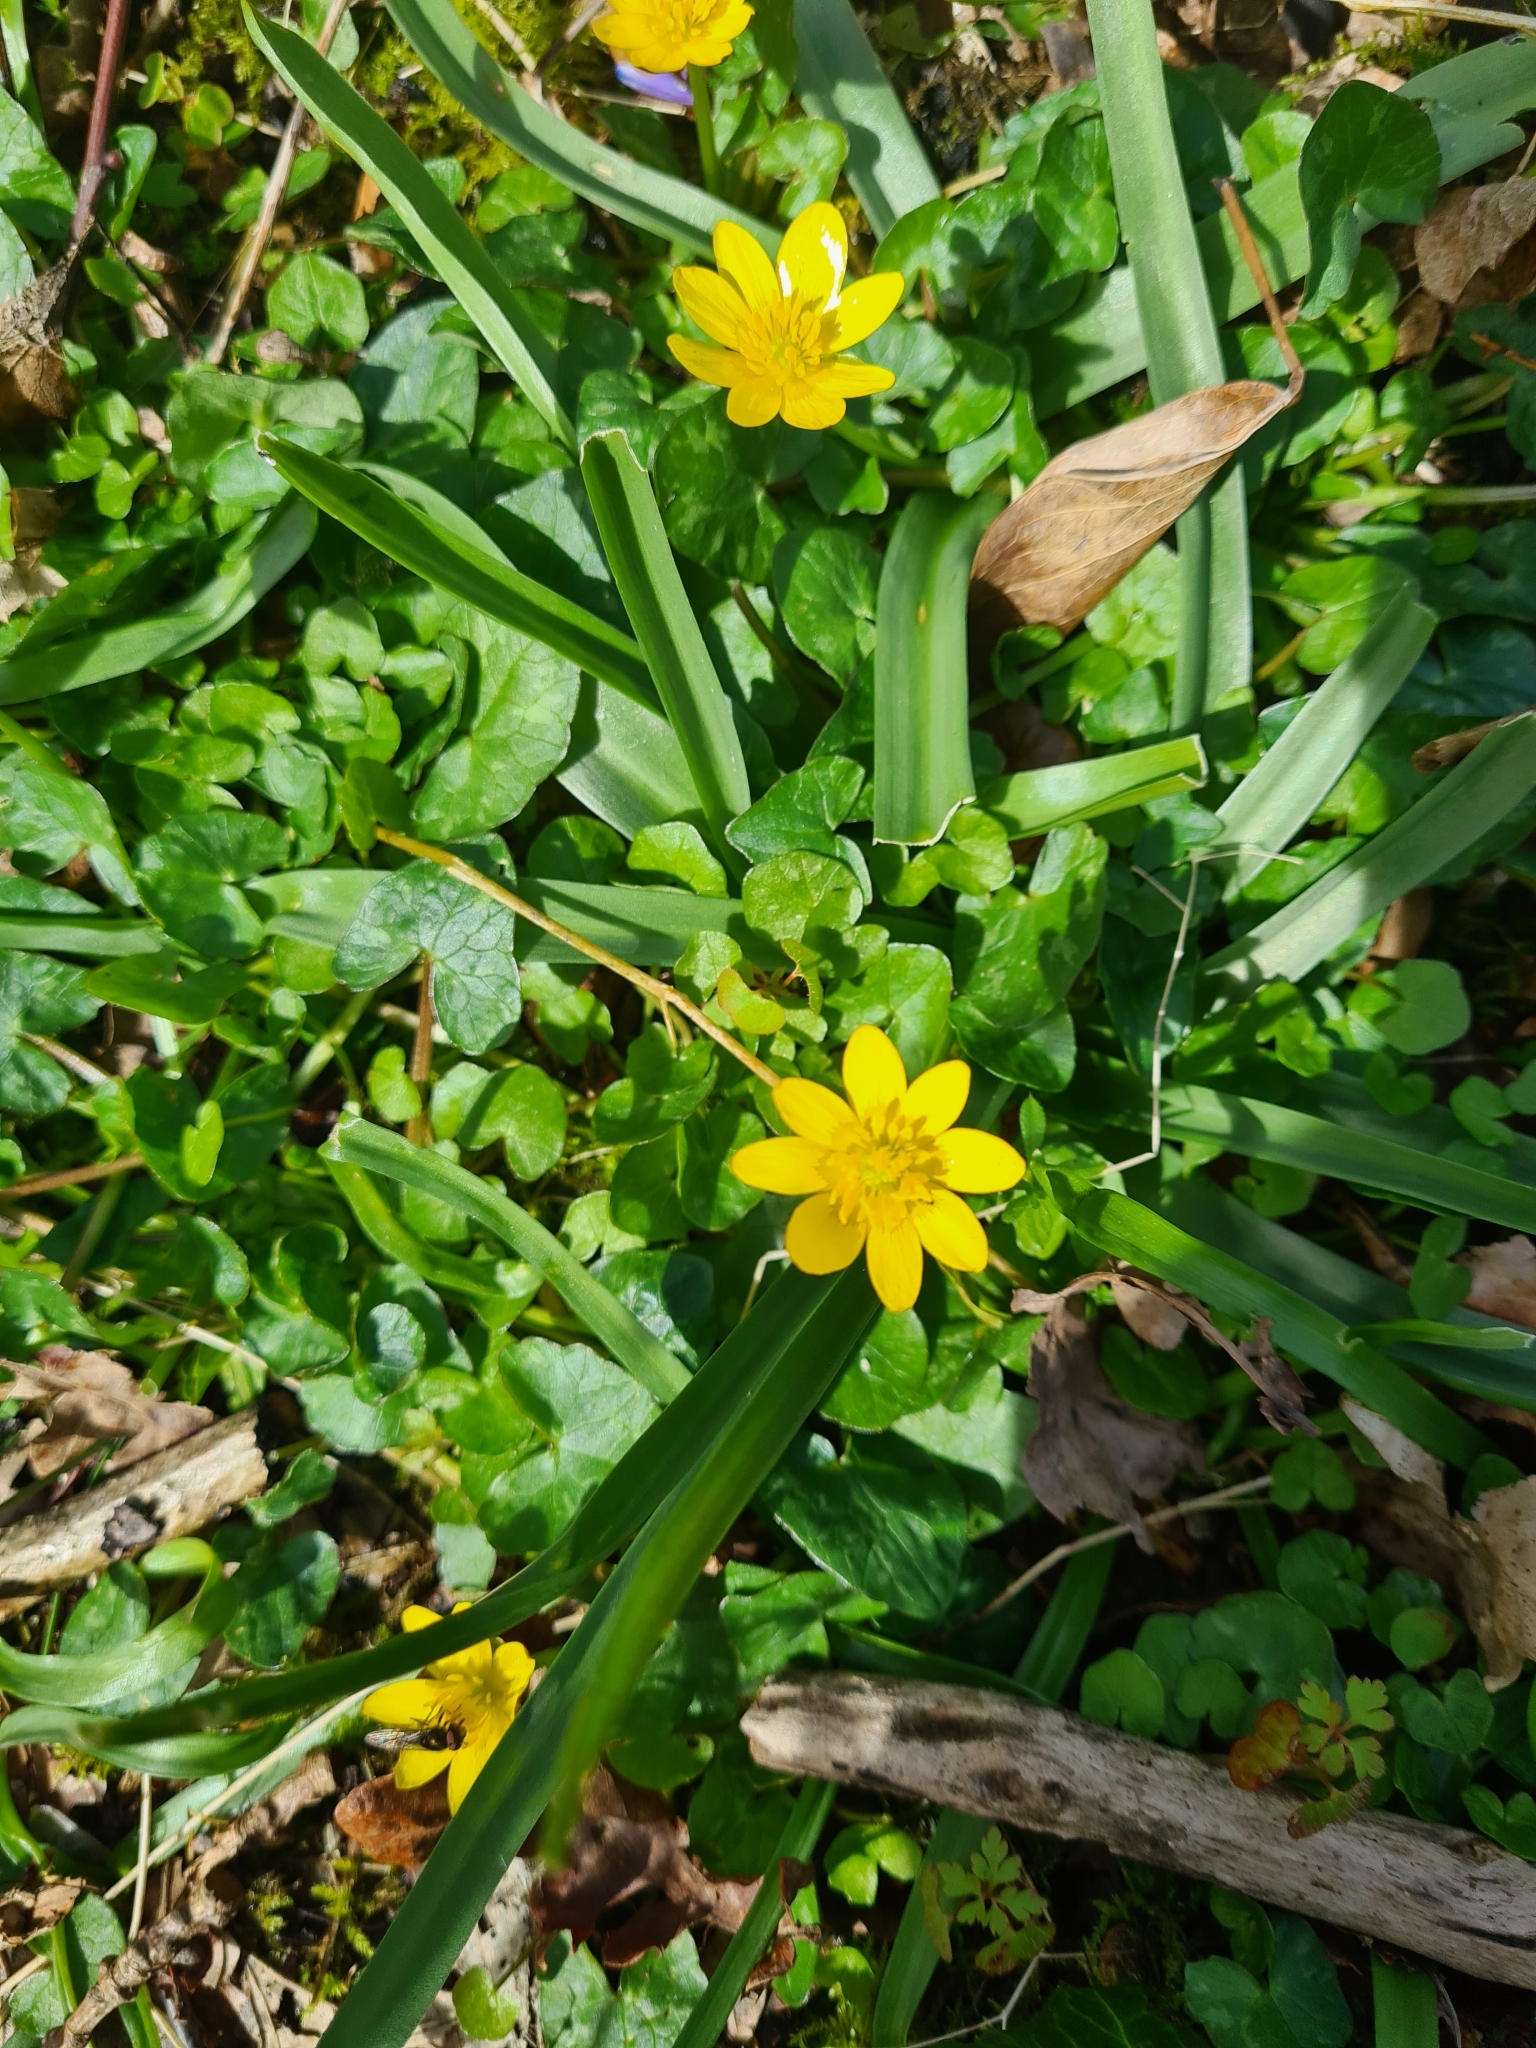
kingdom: Plantae
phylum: Tracheophyta
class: Magnoliopsida
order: Ranunculales
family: Ranunculaceae
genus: Ficaria
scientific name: Ficaria verna
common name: Lesser celandine
